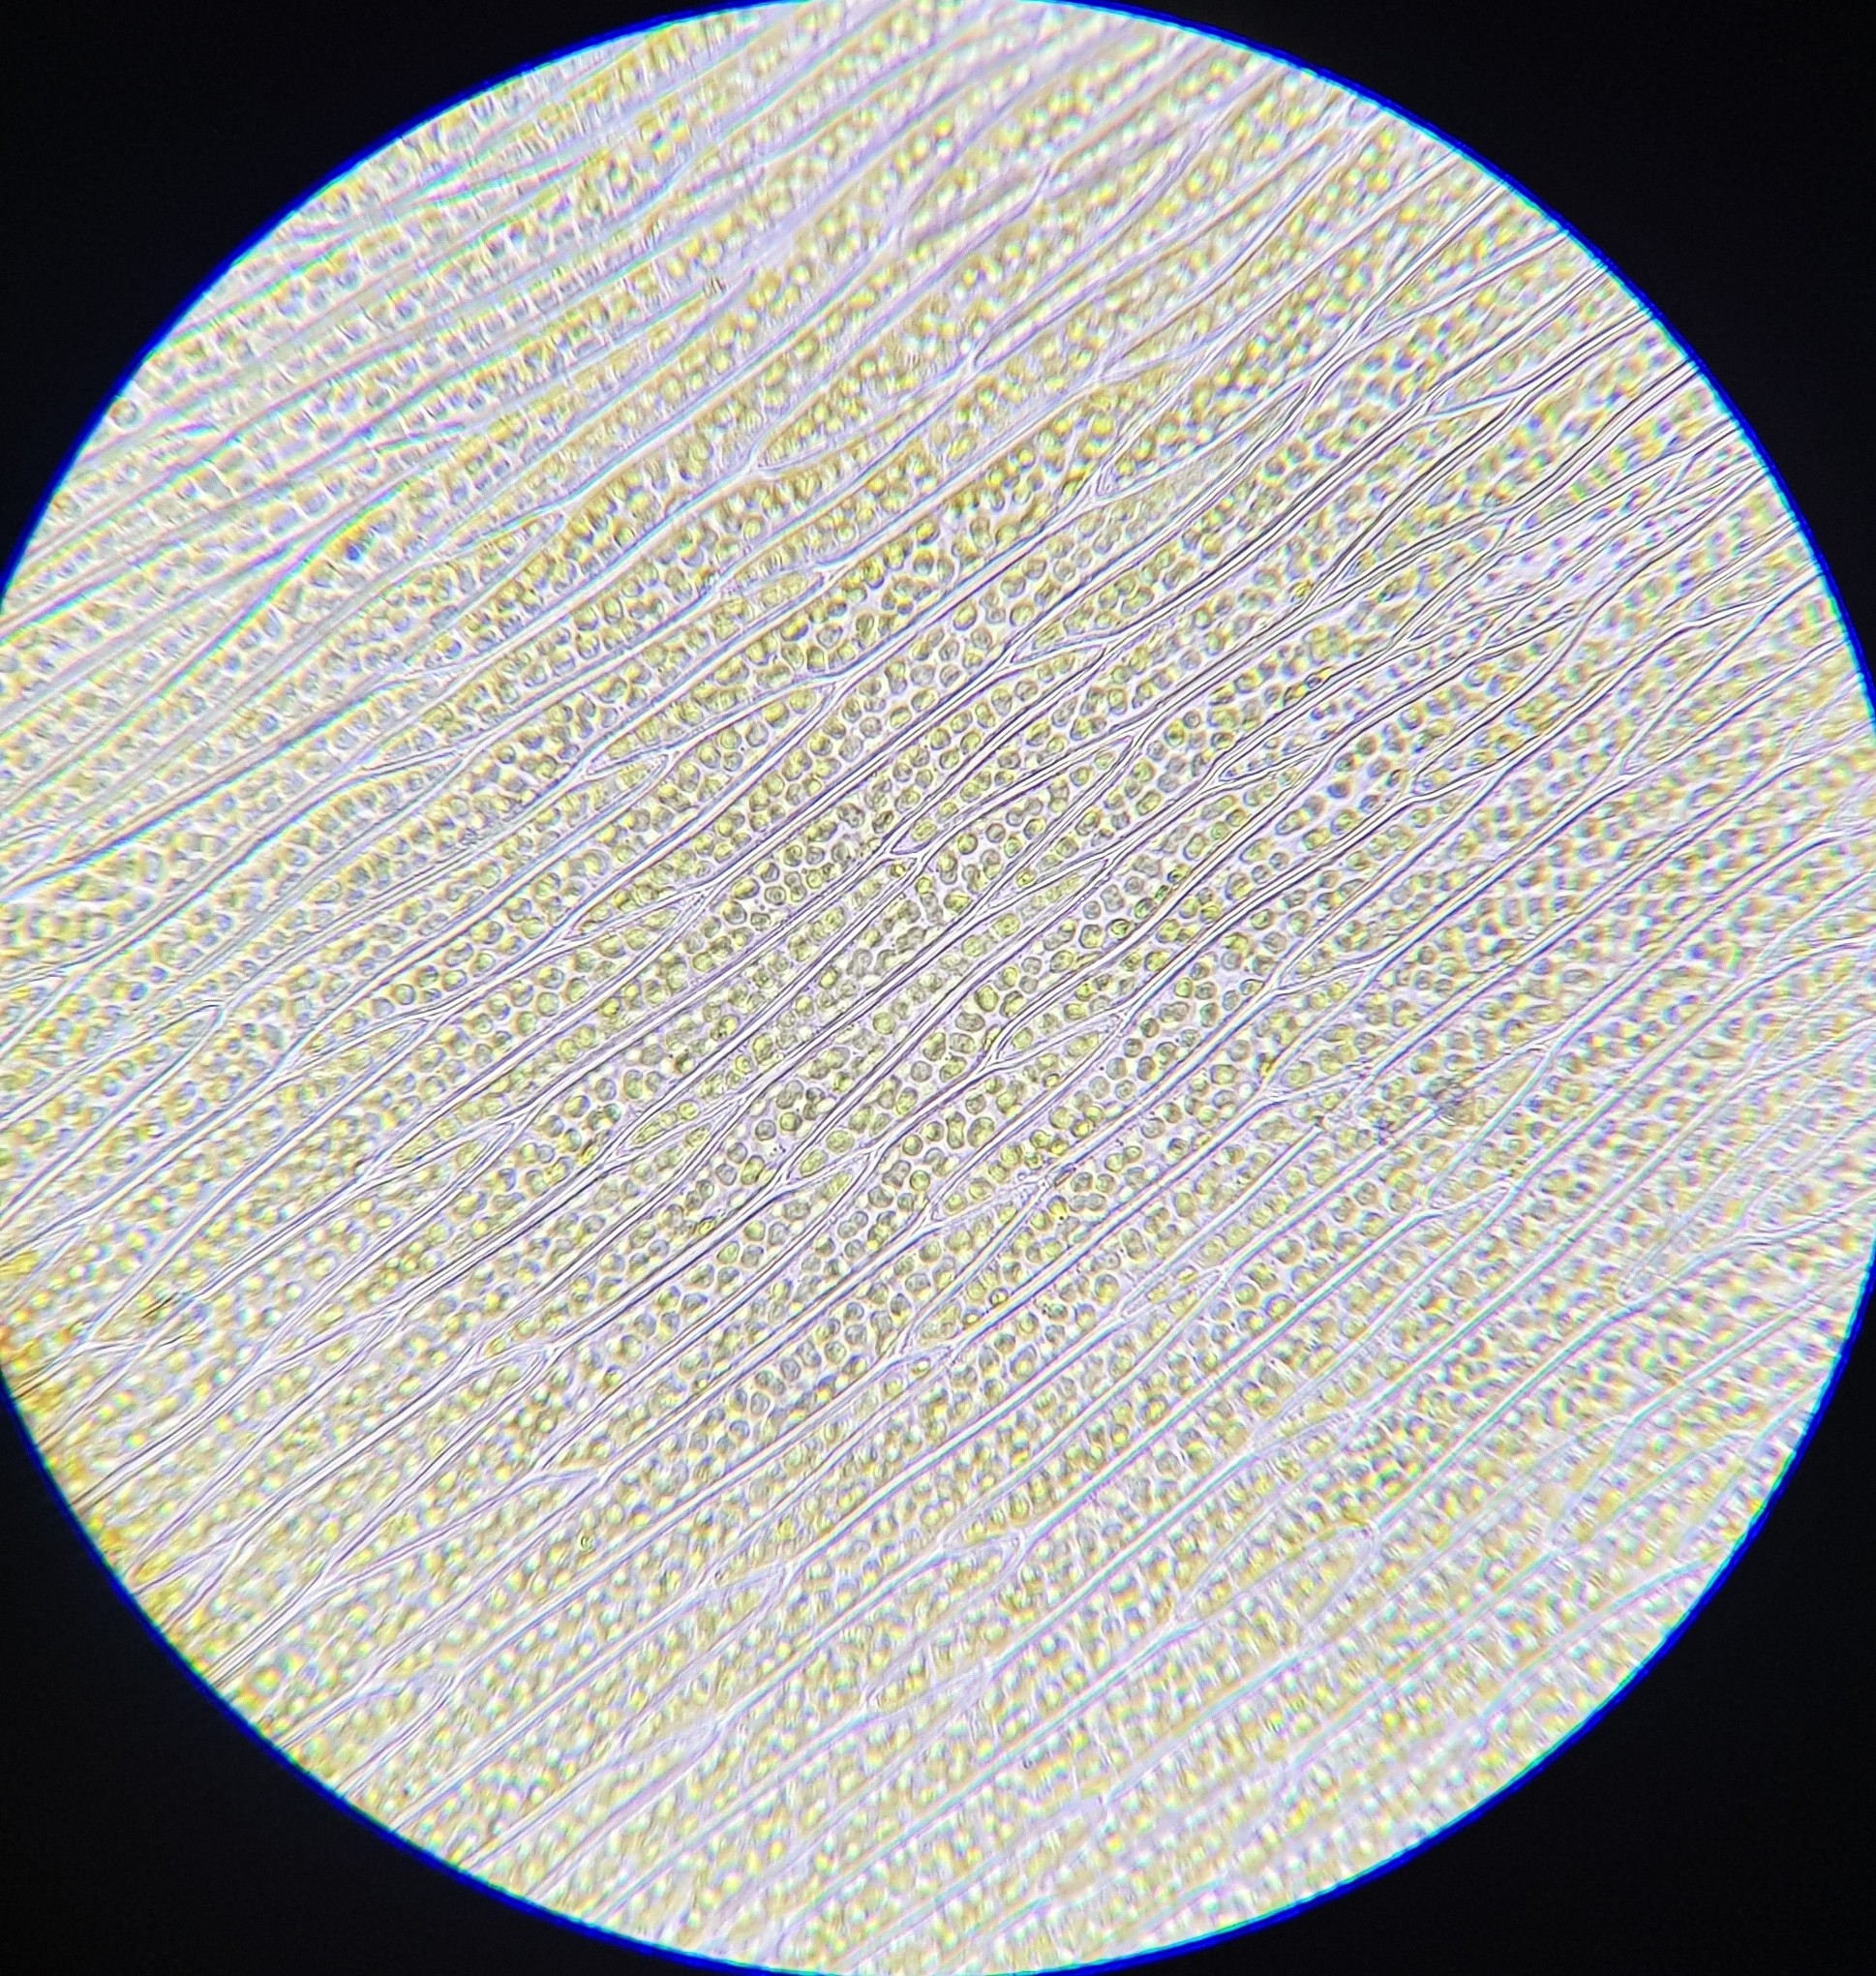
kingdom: Plantae
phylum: Bryophyta
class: Bryopsida
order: Hypnales
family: Plagiotheciaceae
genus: Plagiothecium
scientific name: Plagiothecium succulentum
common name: Juicy silk-moss
